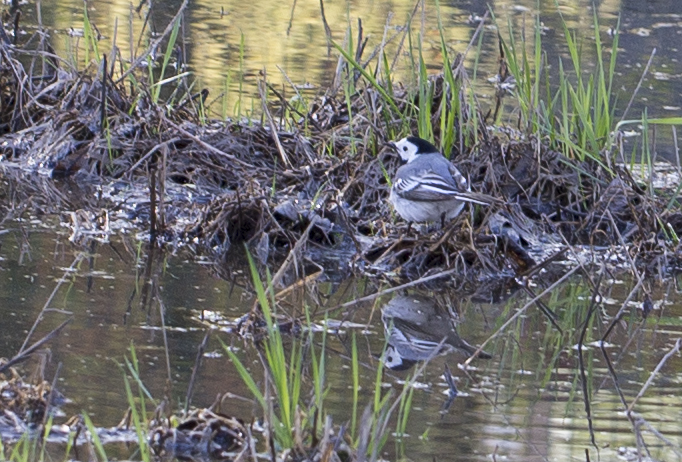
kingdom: Animalia
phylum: Chordata
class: Aves
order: Passeriformes
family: Motacillidae
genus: Motacilla
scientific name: Motacilla alba
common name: White wagtail
